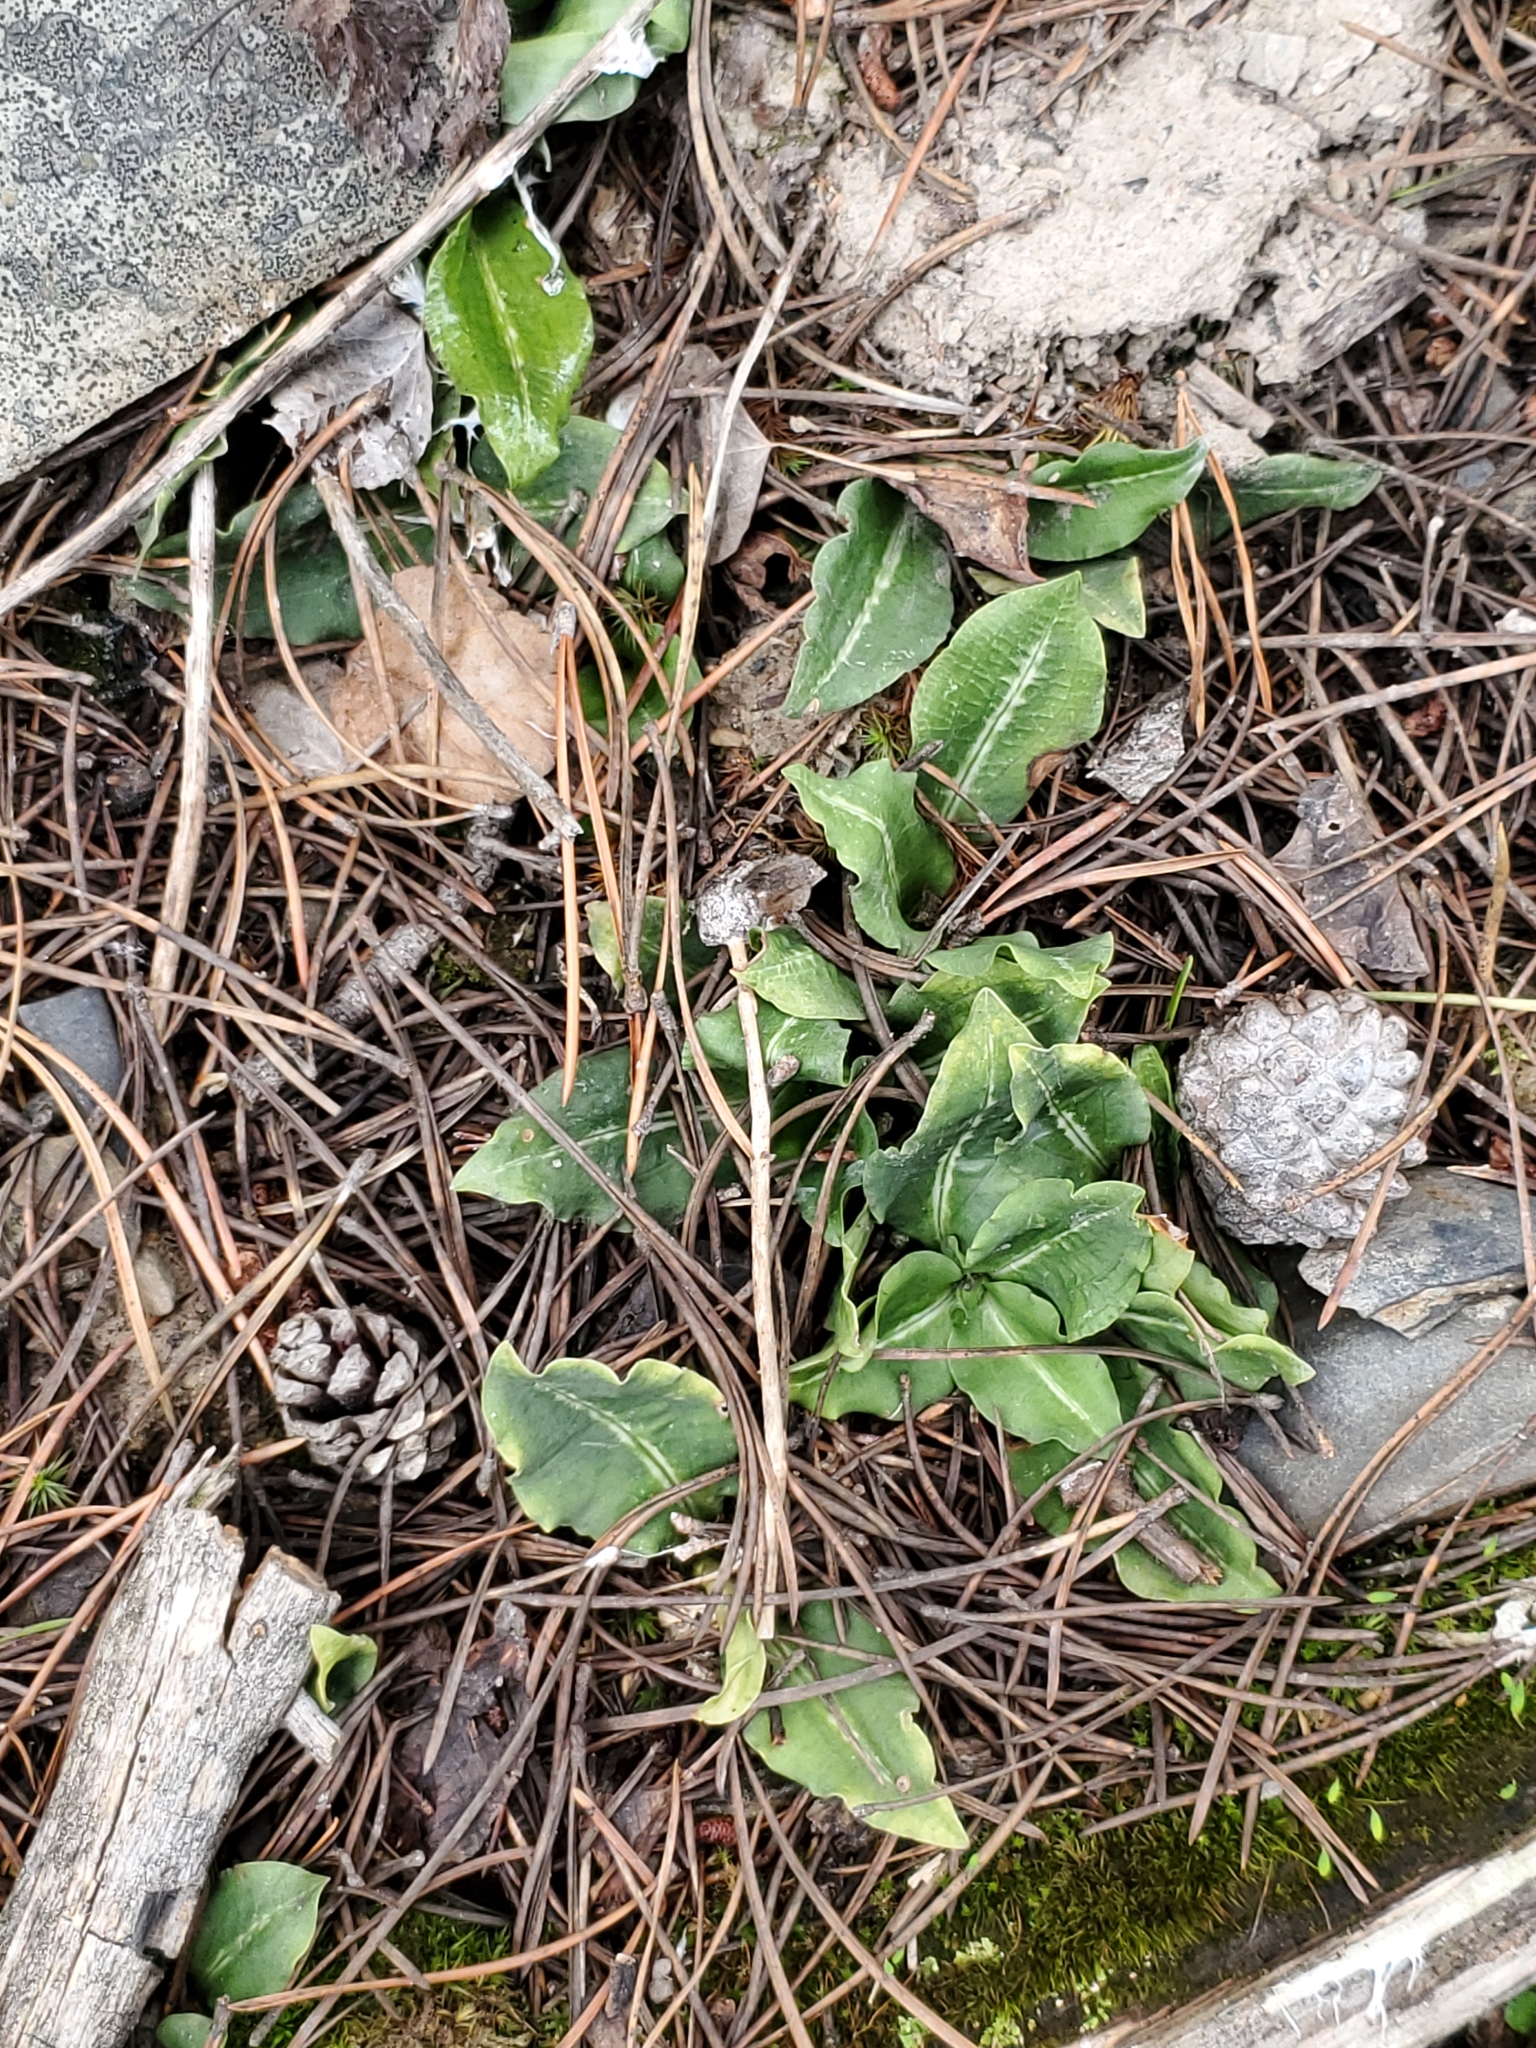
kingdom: Plantae
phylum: Tracheophyta
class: Liliopsida
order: Asparagales
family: Orchidaceae
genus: Goodyera
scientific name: Goodyera oblongifolia
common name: Giant rattlesnake-plantain
